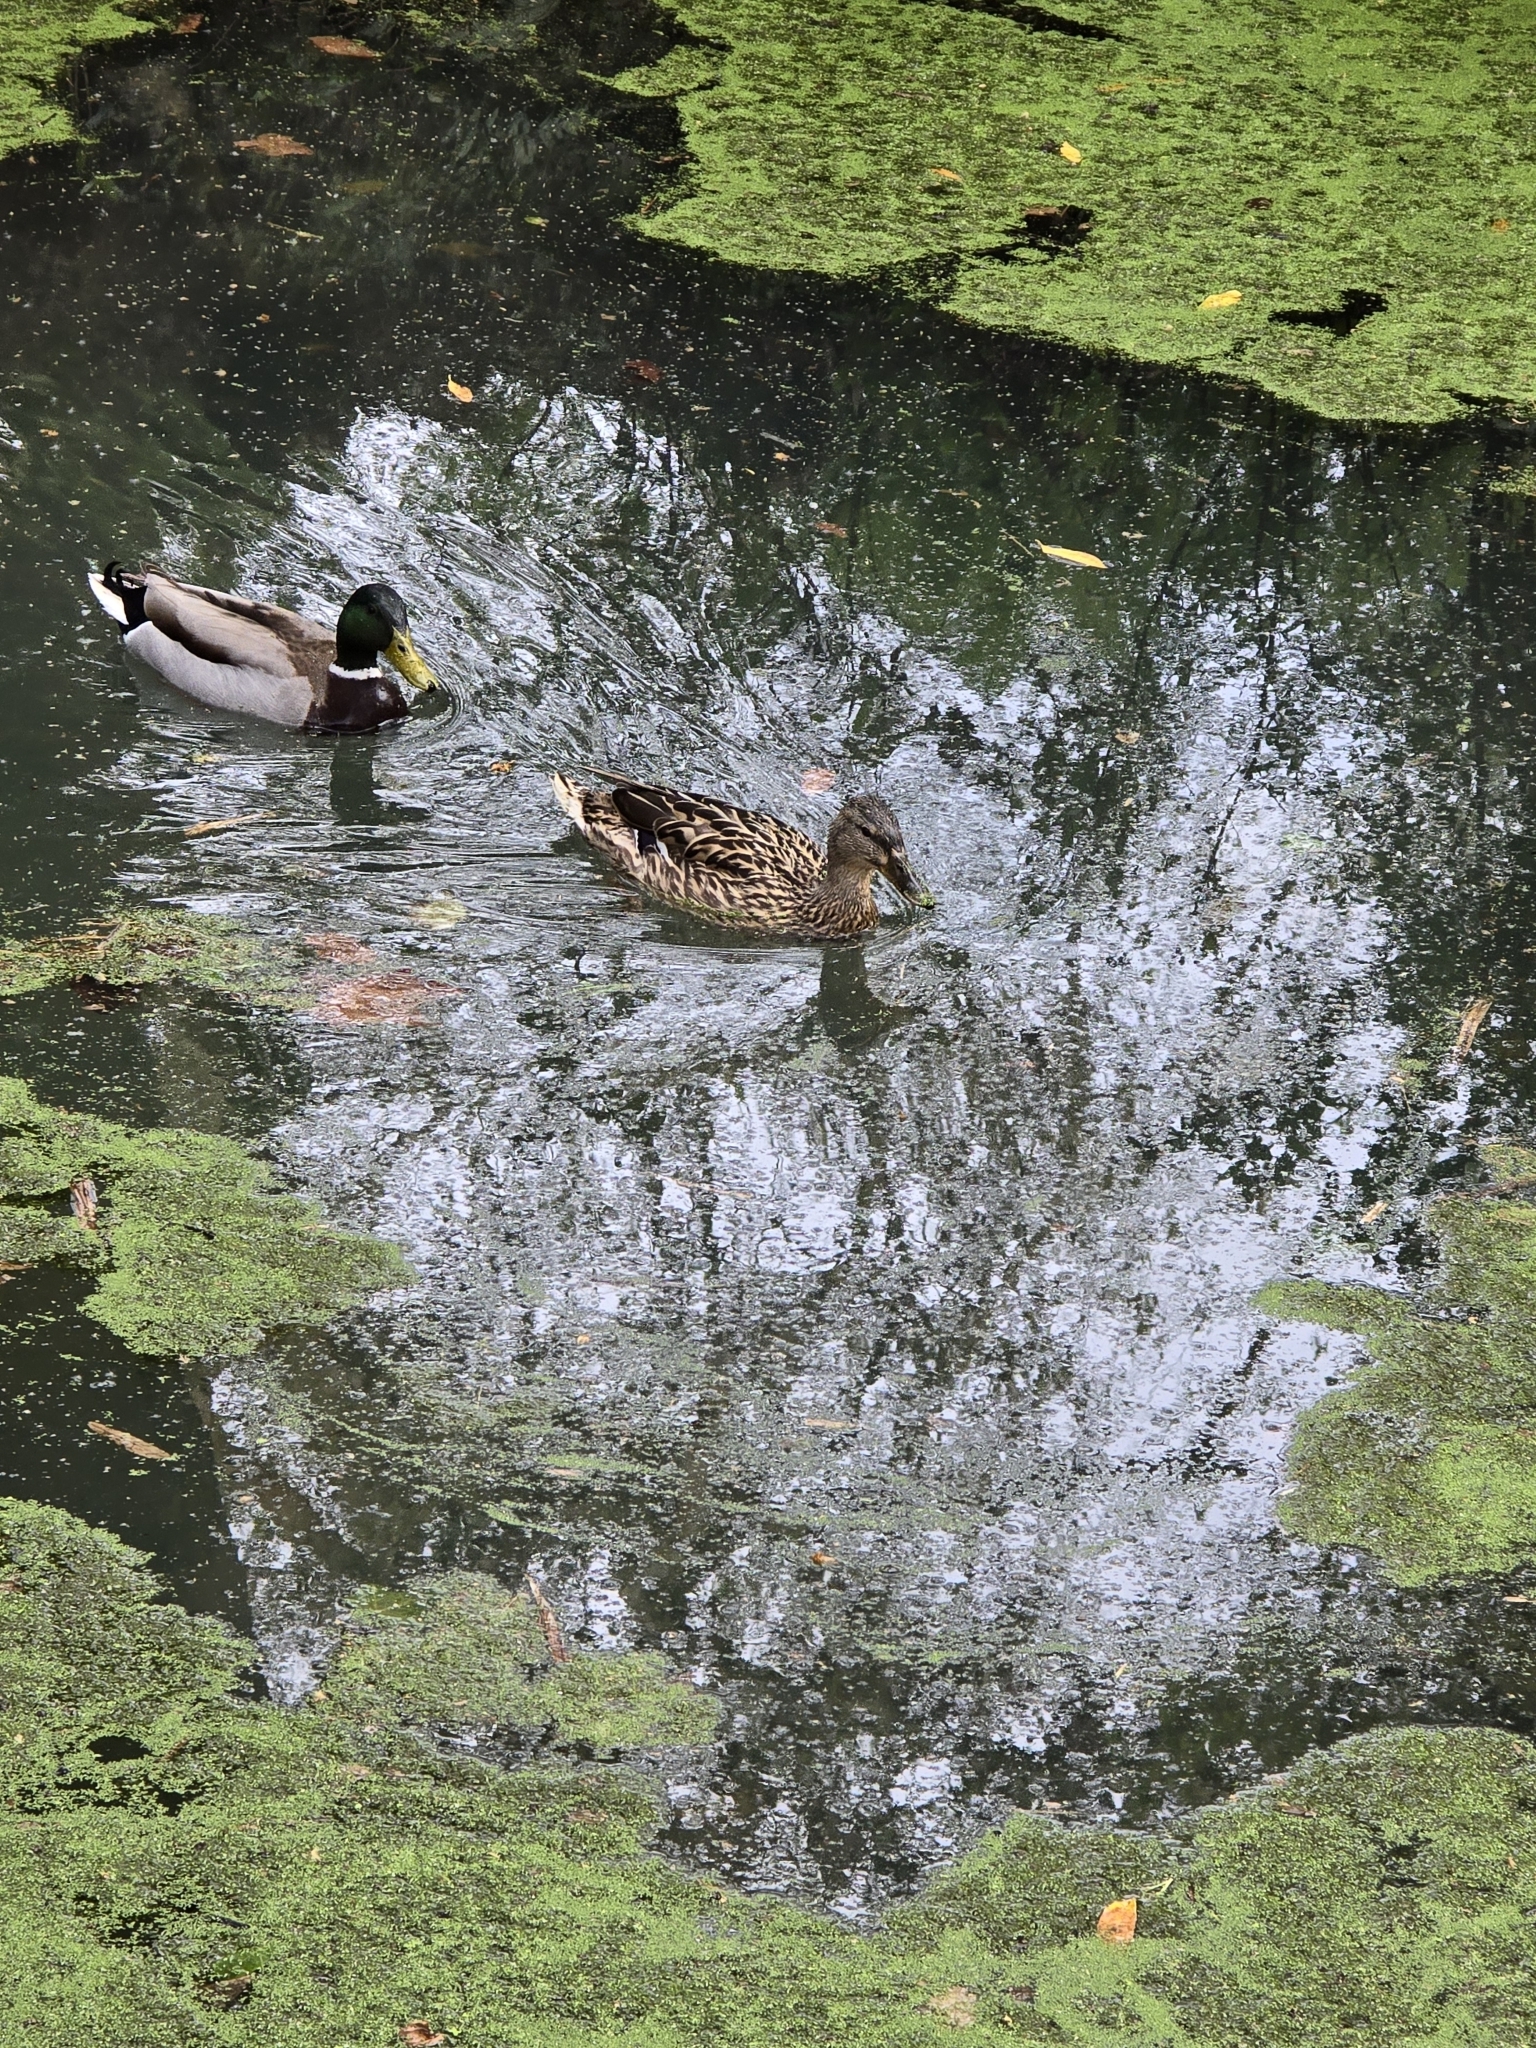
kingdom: Animalia
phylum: Chordata
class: Aves
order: Anseriformes
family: Anatidae
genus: Anas
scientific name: Anas platyrhynchos
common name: Mallard
